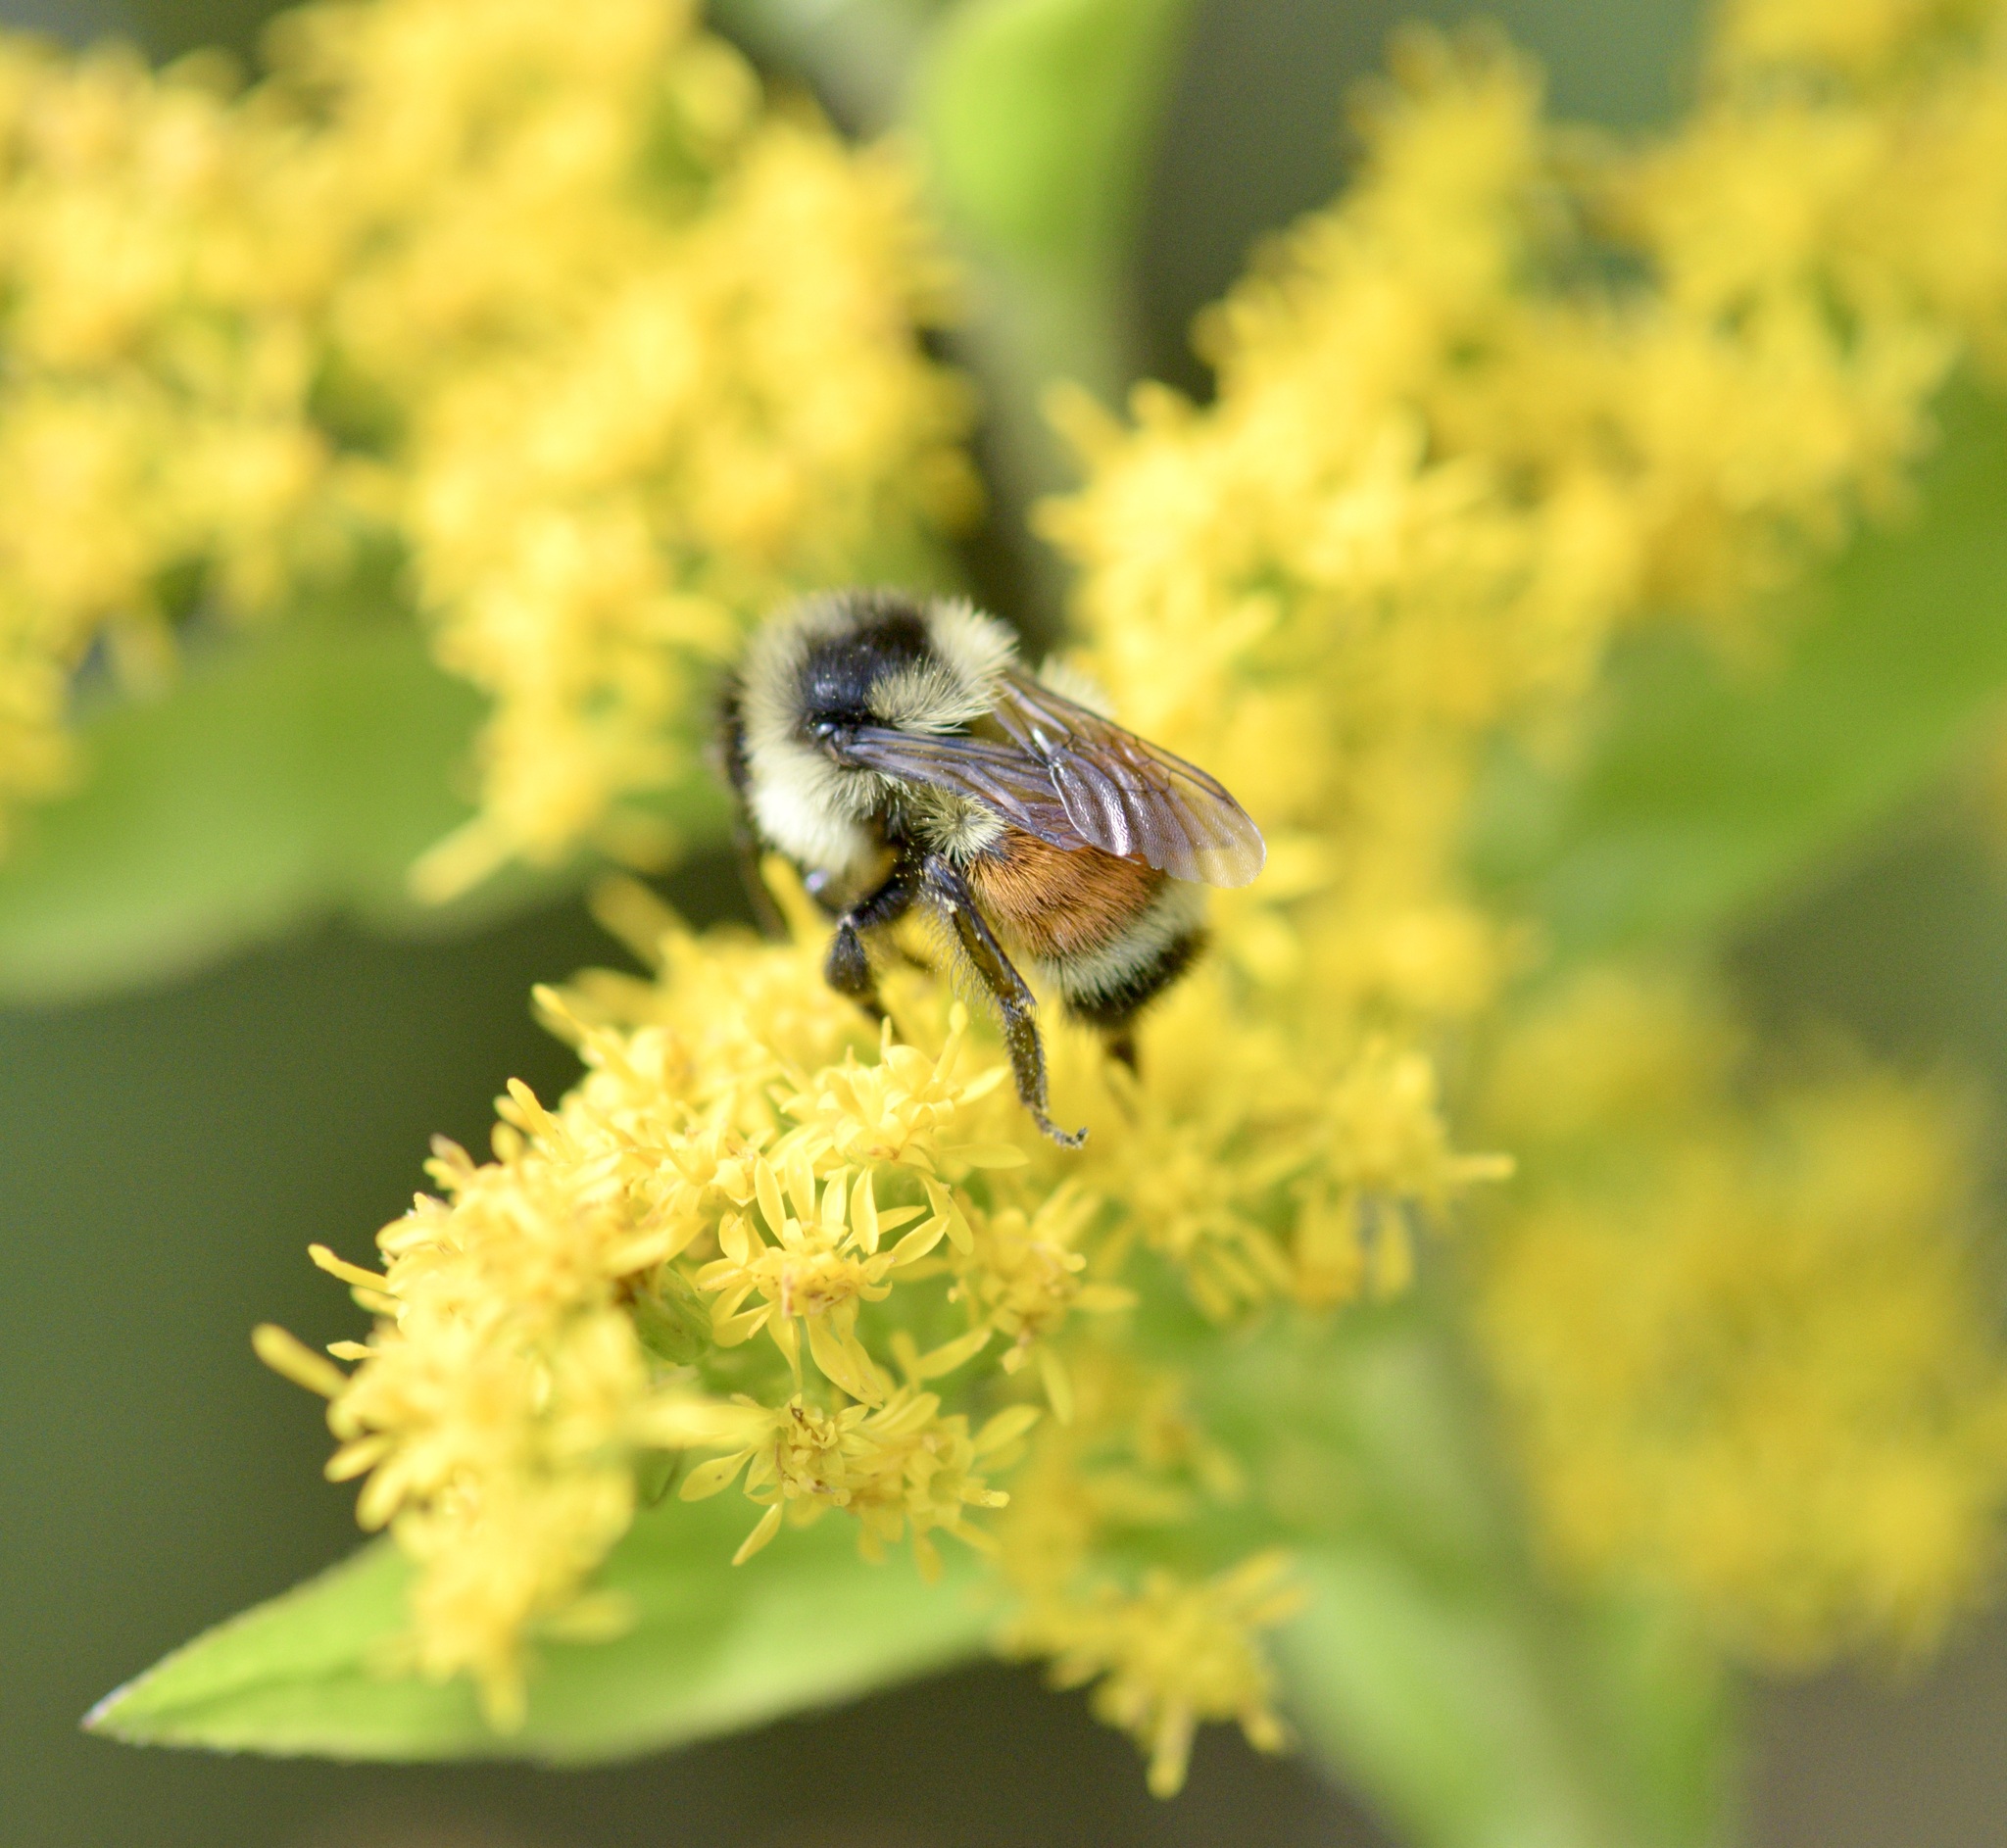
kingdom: Animalia
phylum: Arthropoda
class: Insecta
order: Hymenoptera
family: Apidae
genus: Bombus
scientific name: Bombus ternarius
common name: Tri-colored bumble bee
